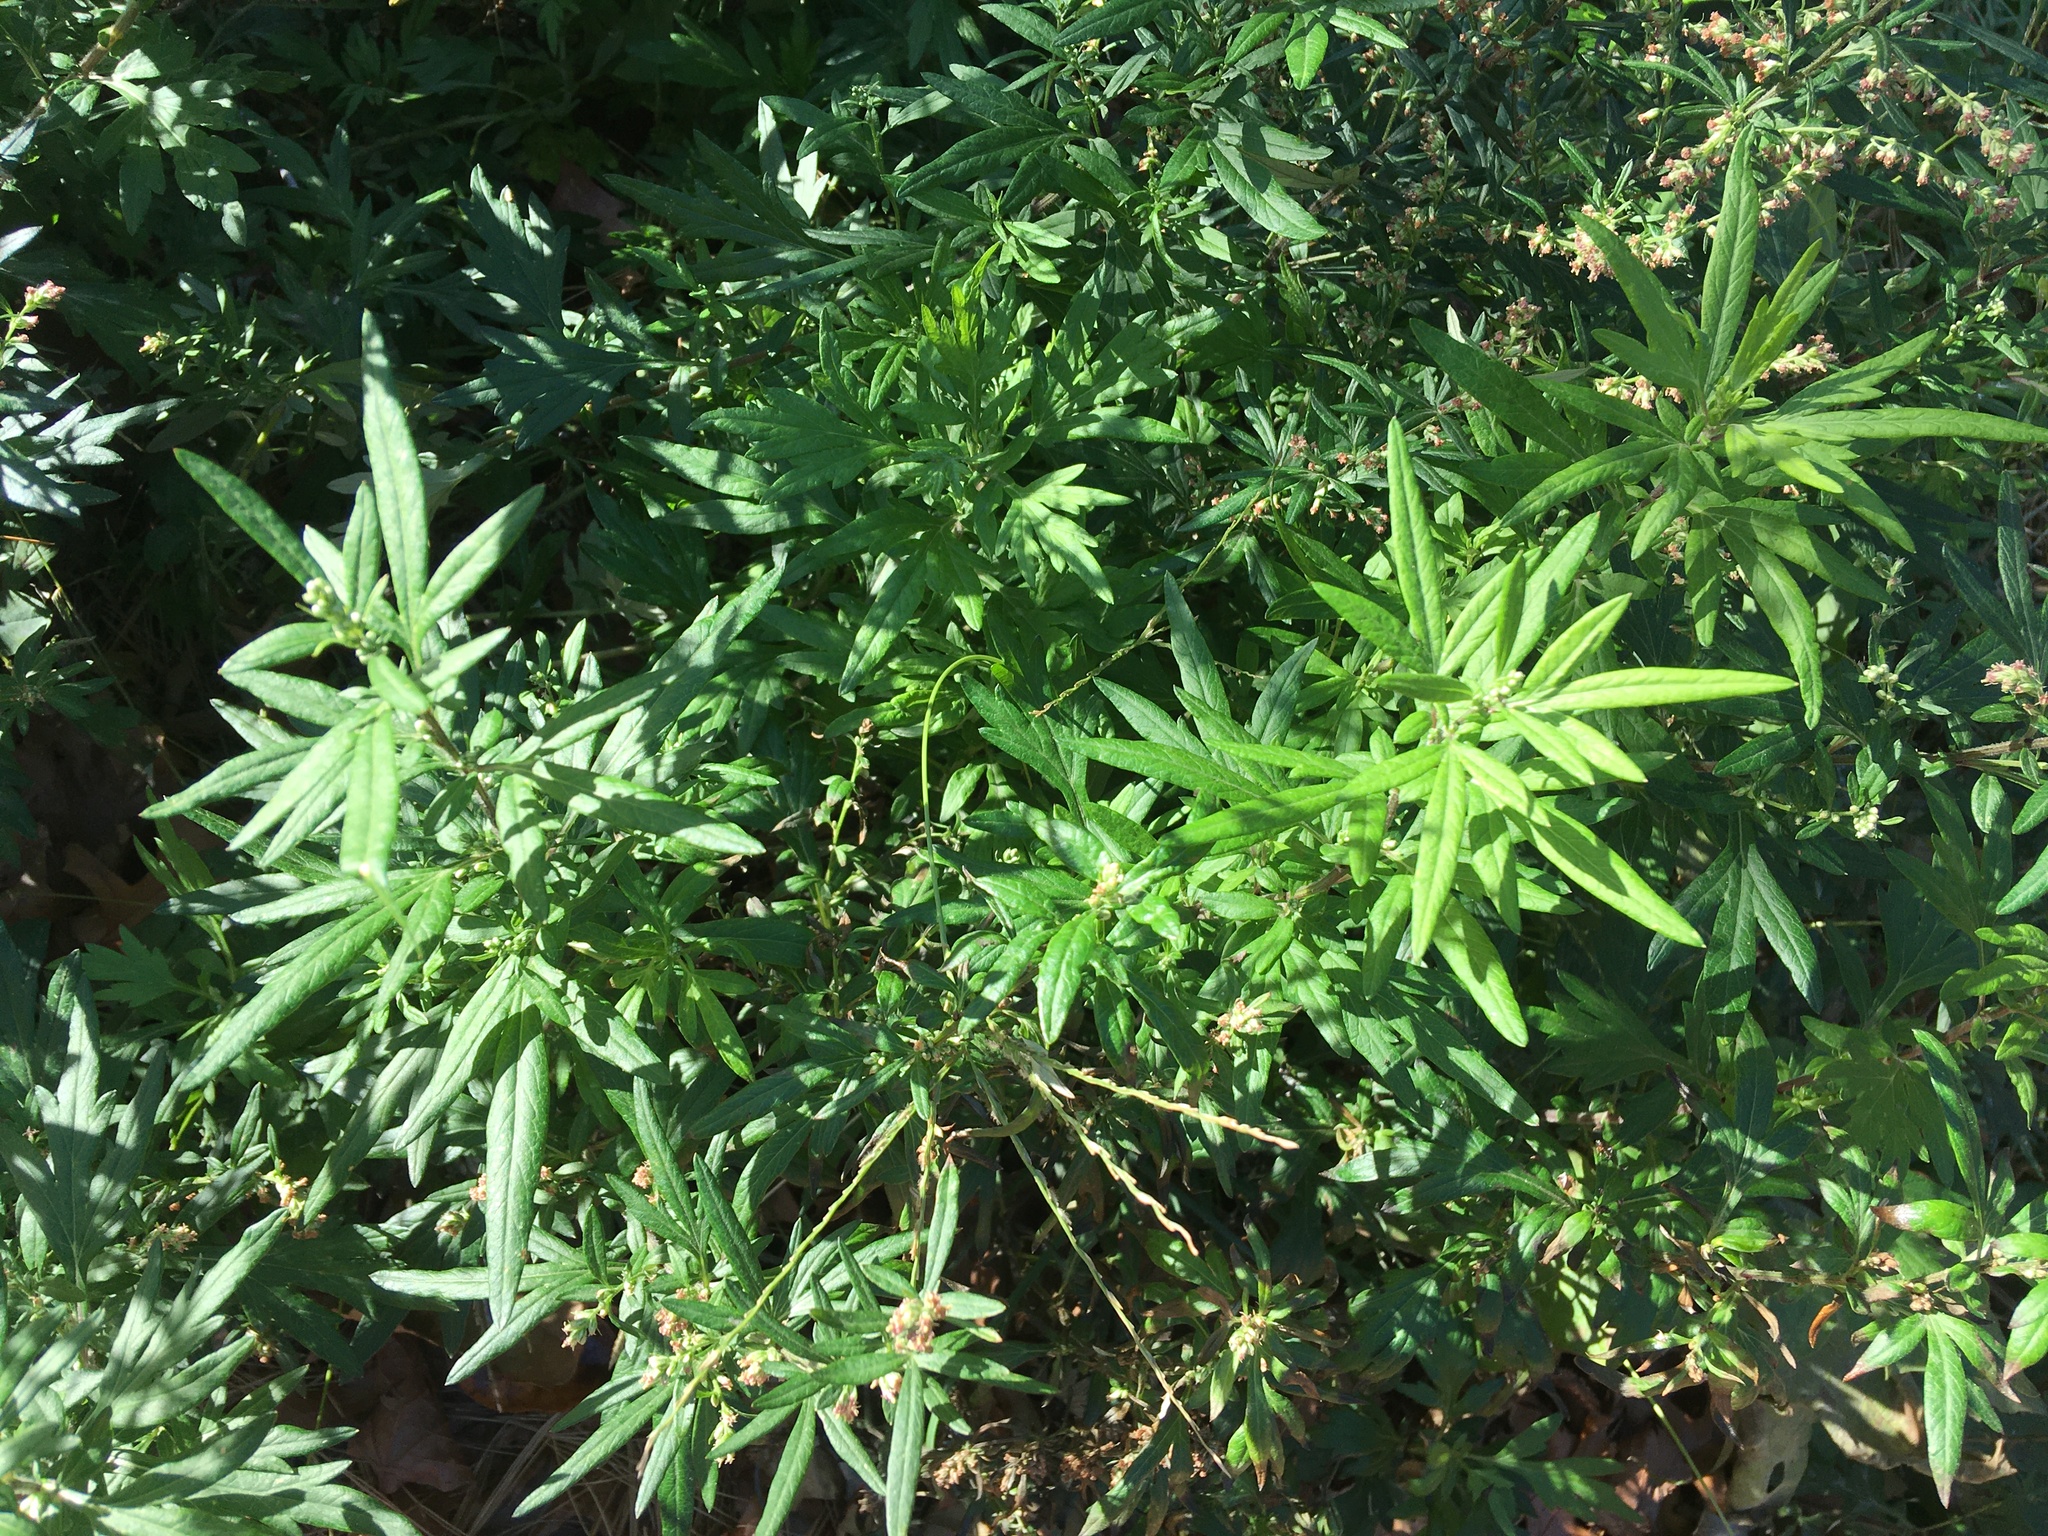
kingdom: Plantae
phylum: Tracheophyta
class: Magnoliopsida
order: Asterales
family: Asteraceae
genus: Artemisia
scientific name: Artemisia vulgaris
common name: Mugwort
